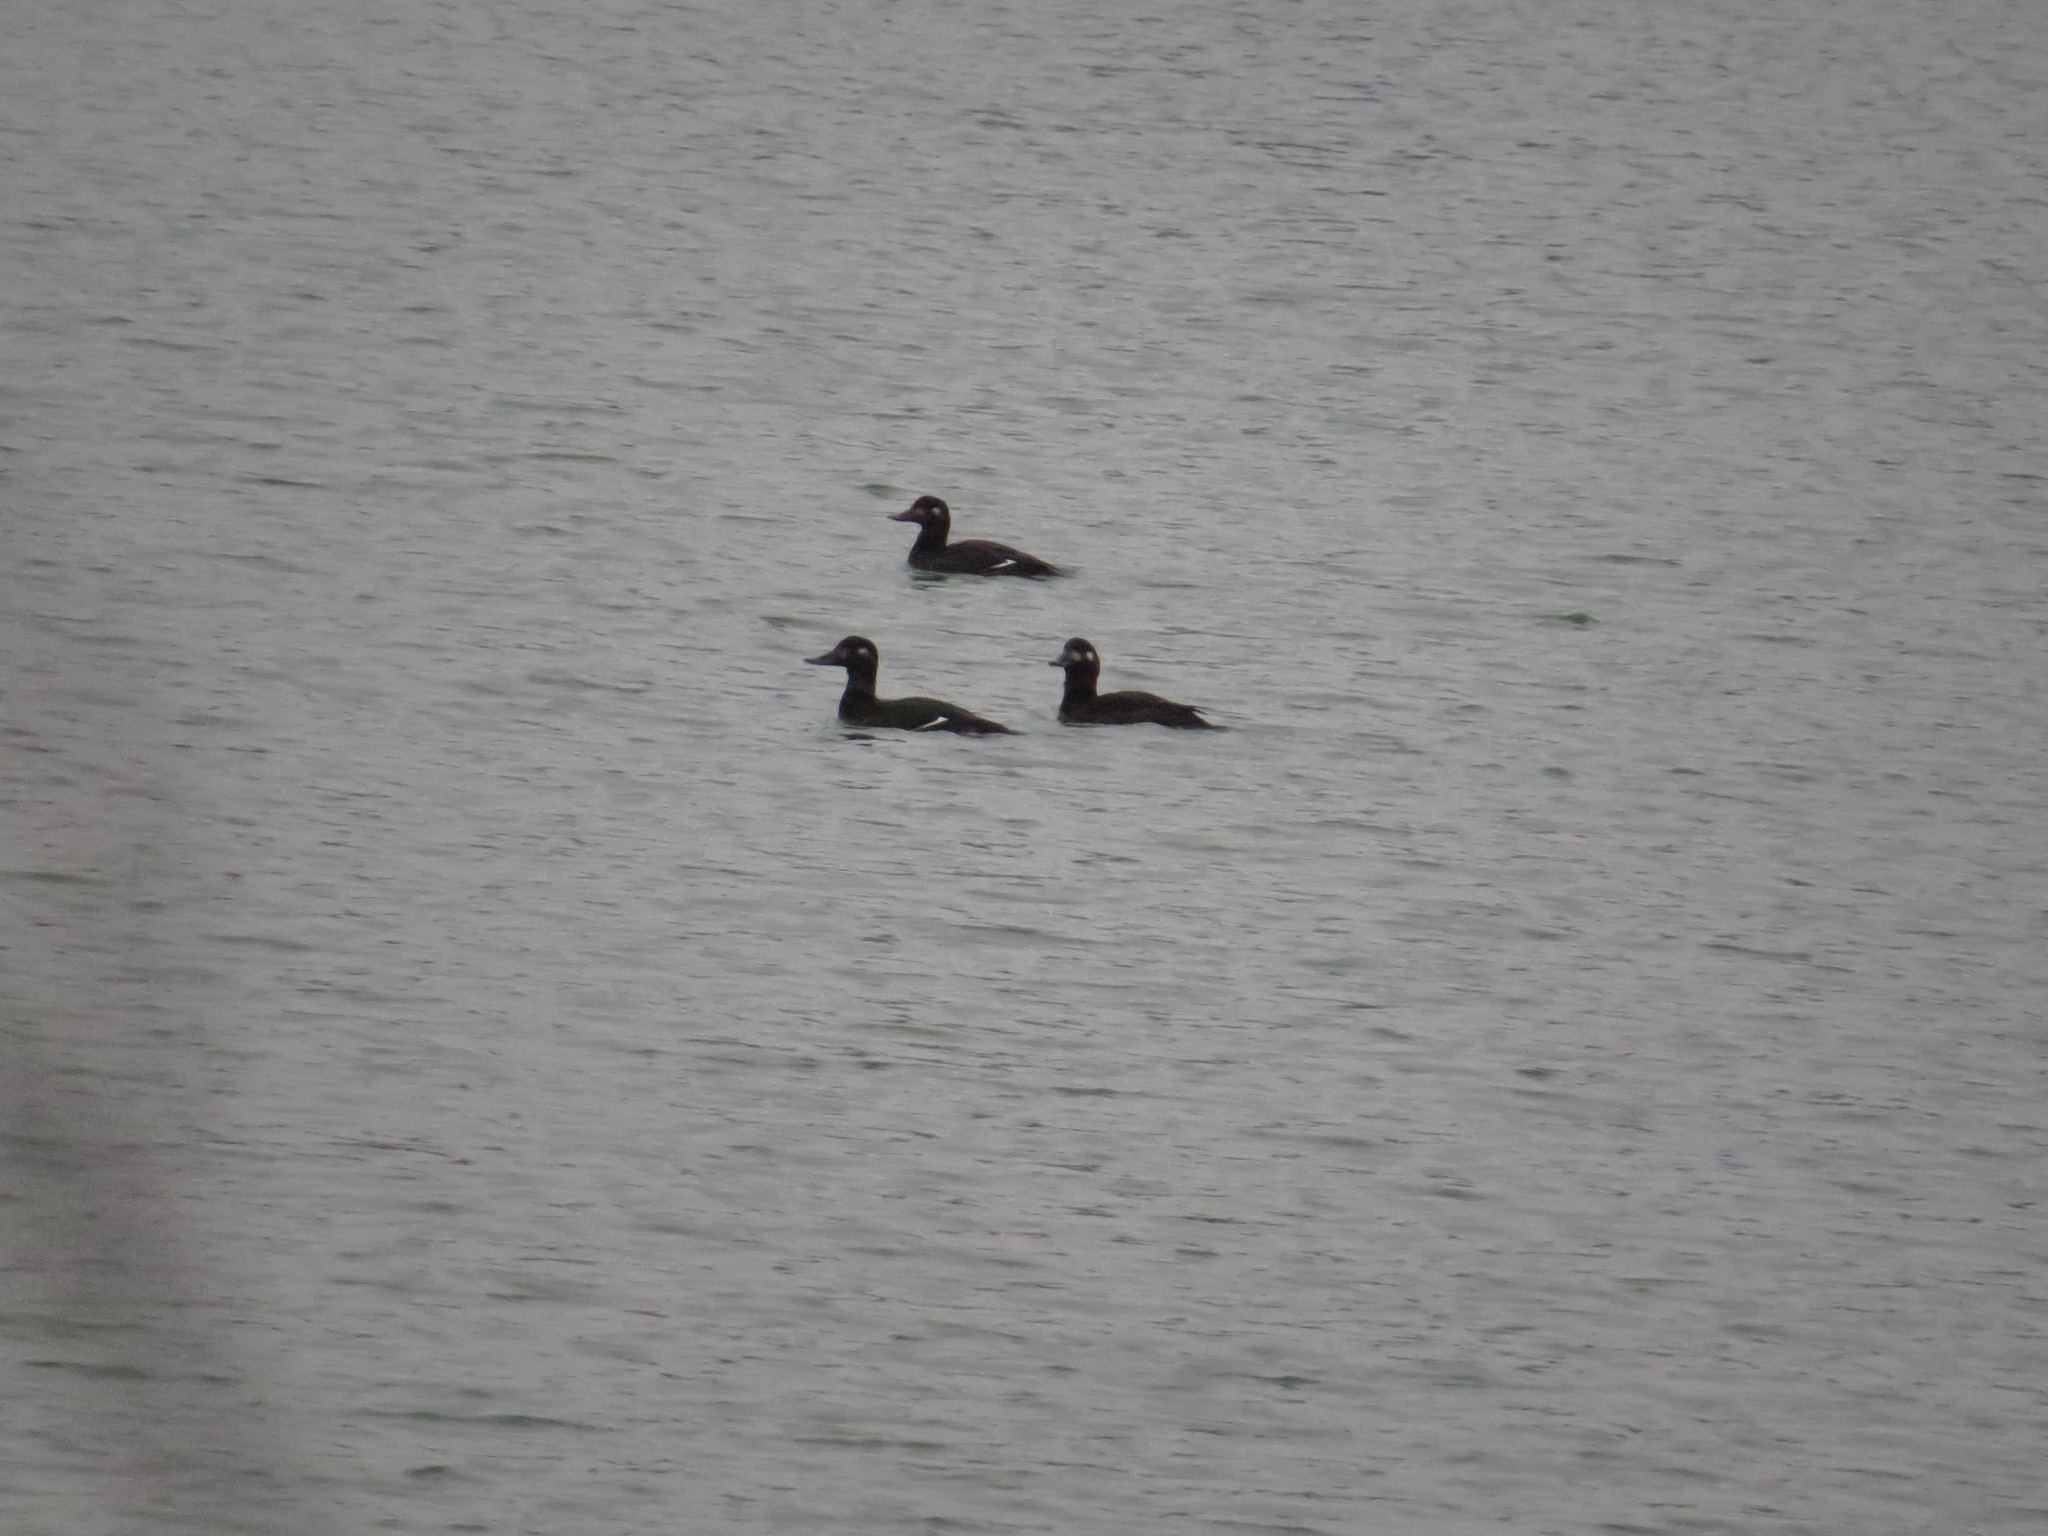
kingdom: Animalia
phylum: Chordata
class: Aves
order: Anseriformes
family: Anatidae
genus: Melanitta
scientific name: Melanitta fusca
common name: Velvet scoter
